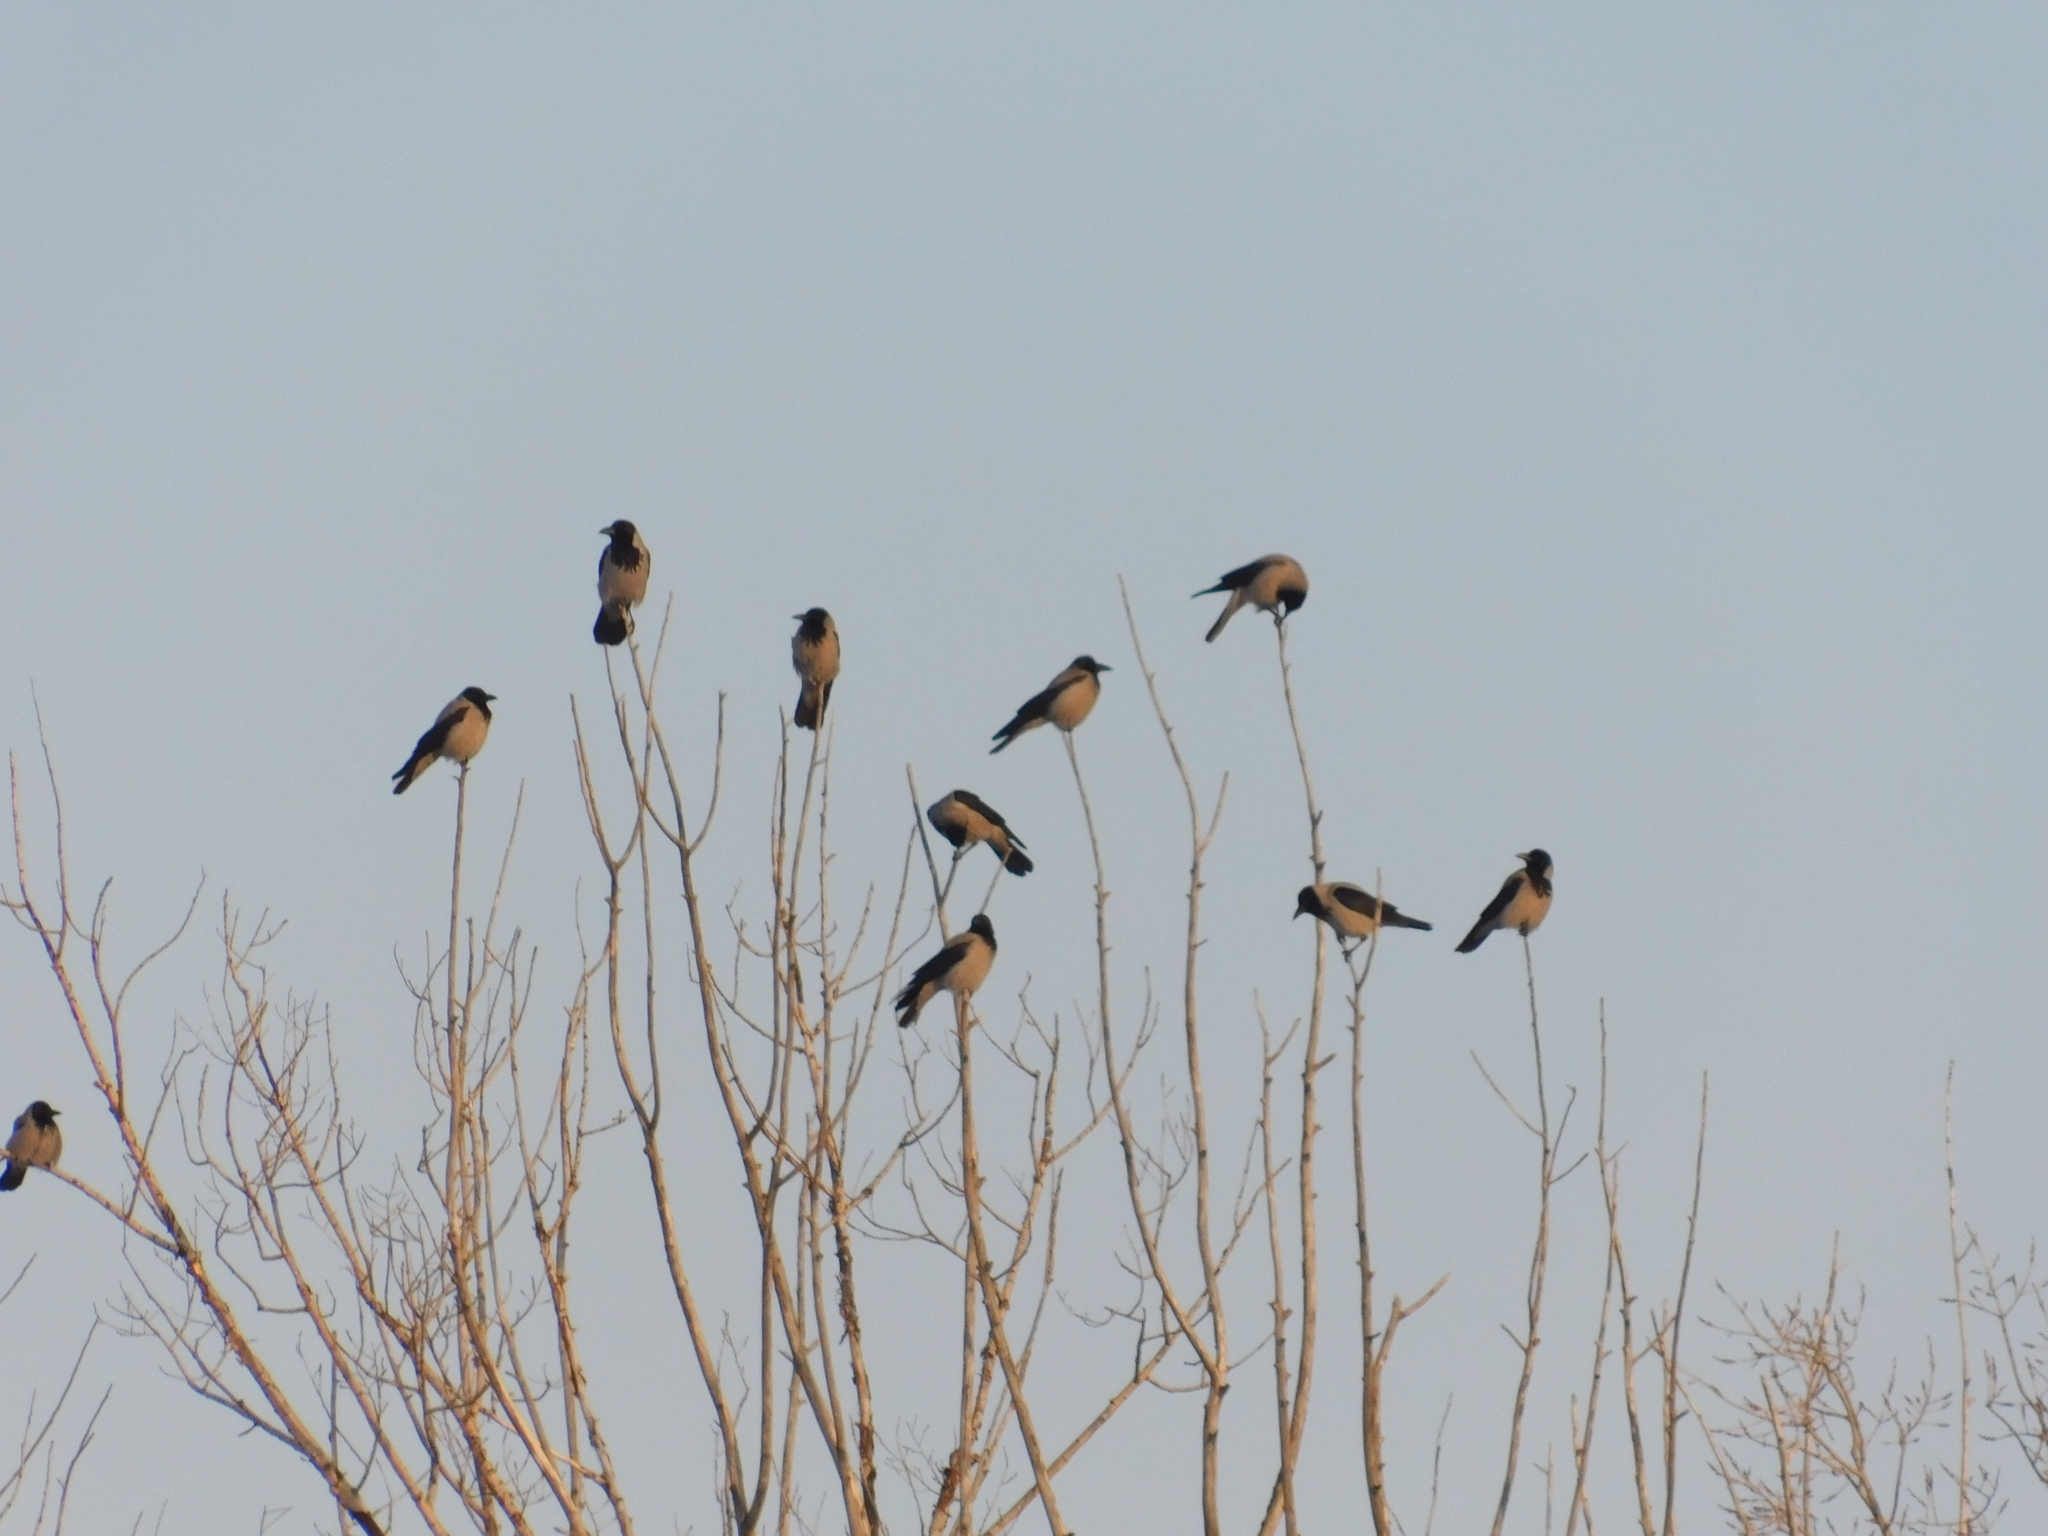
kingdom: Animalia
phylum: Chordata
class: Aves
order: Passeriformes
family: Corvidae
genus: Corvus
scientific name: Corvus cornix
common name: Hooded crow
